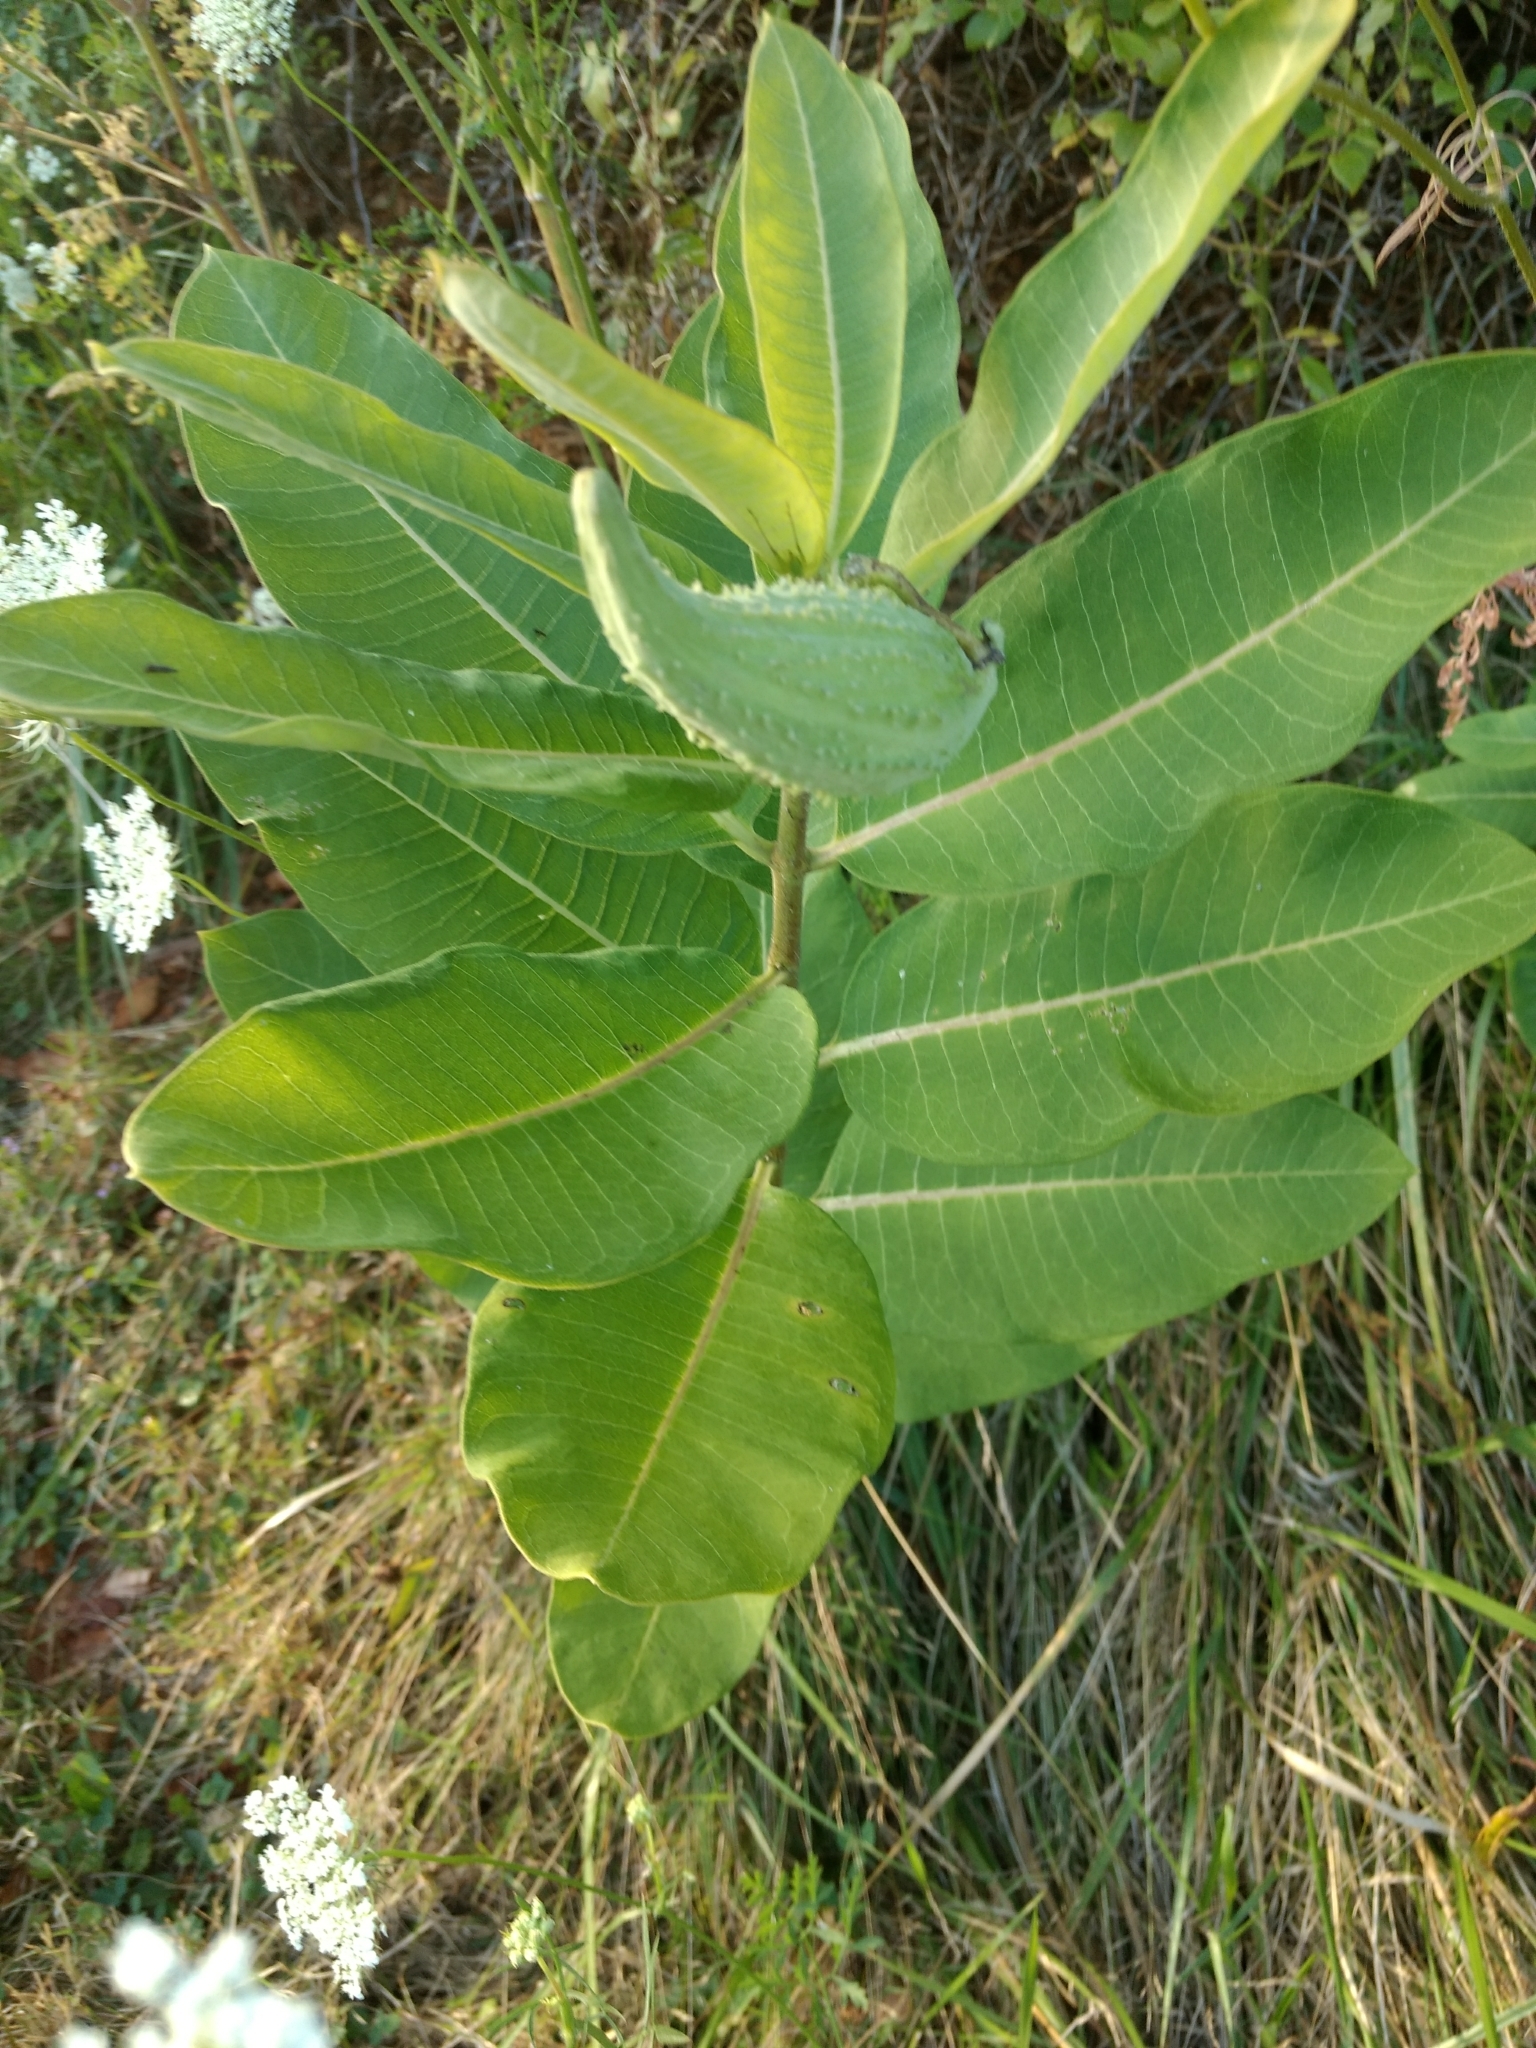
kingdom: Plantae
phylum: Tracheophyta
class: Magnoliopsida
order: Gentianales
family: Apocynaceae
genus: Asclepias
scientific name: Asclepias syriaca
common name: Common milkweed
